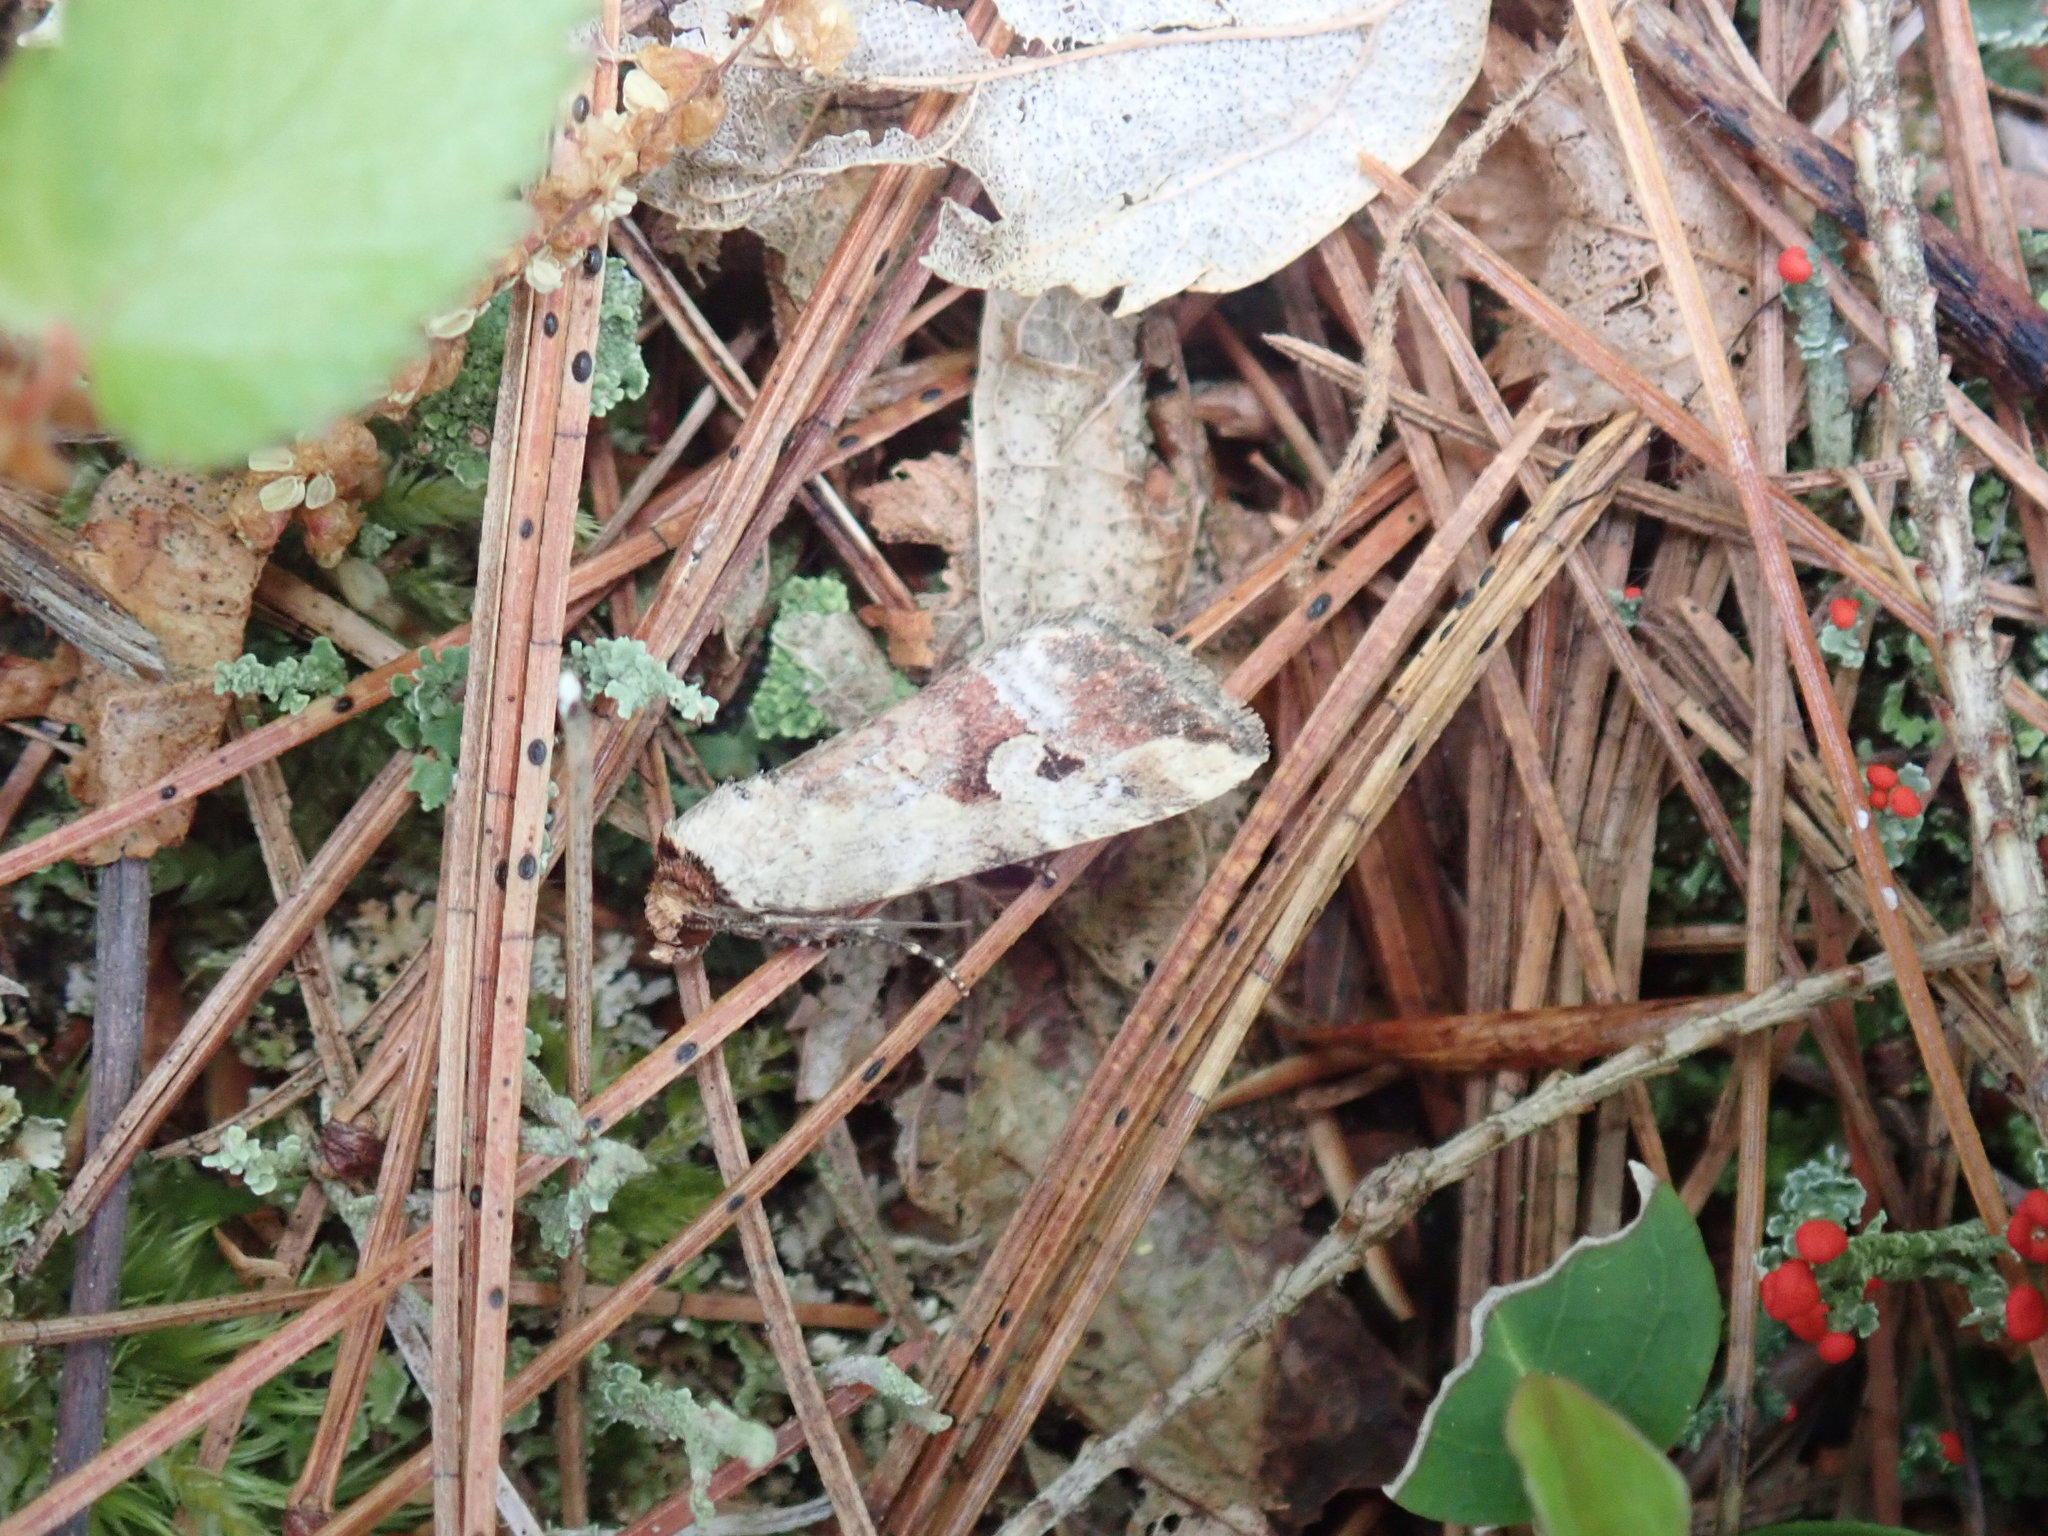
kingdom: Animalia
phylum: Arthropoda
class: Insecta
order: Lepidoptera
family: Noctuidae
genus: Elaphria
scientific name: Elaphria alapallida
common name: Pale-winged midget
